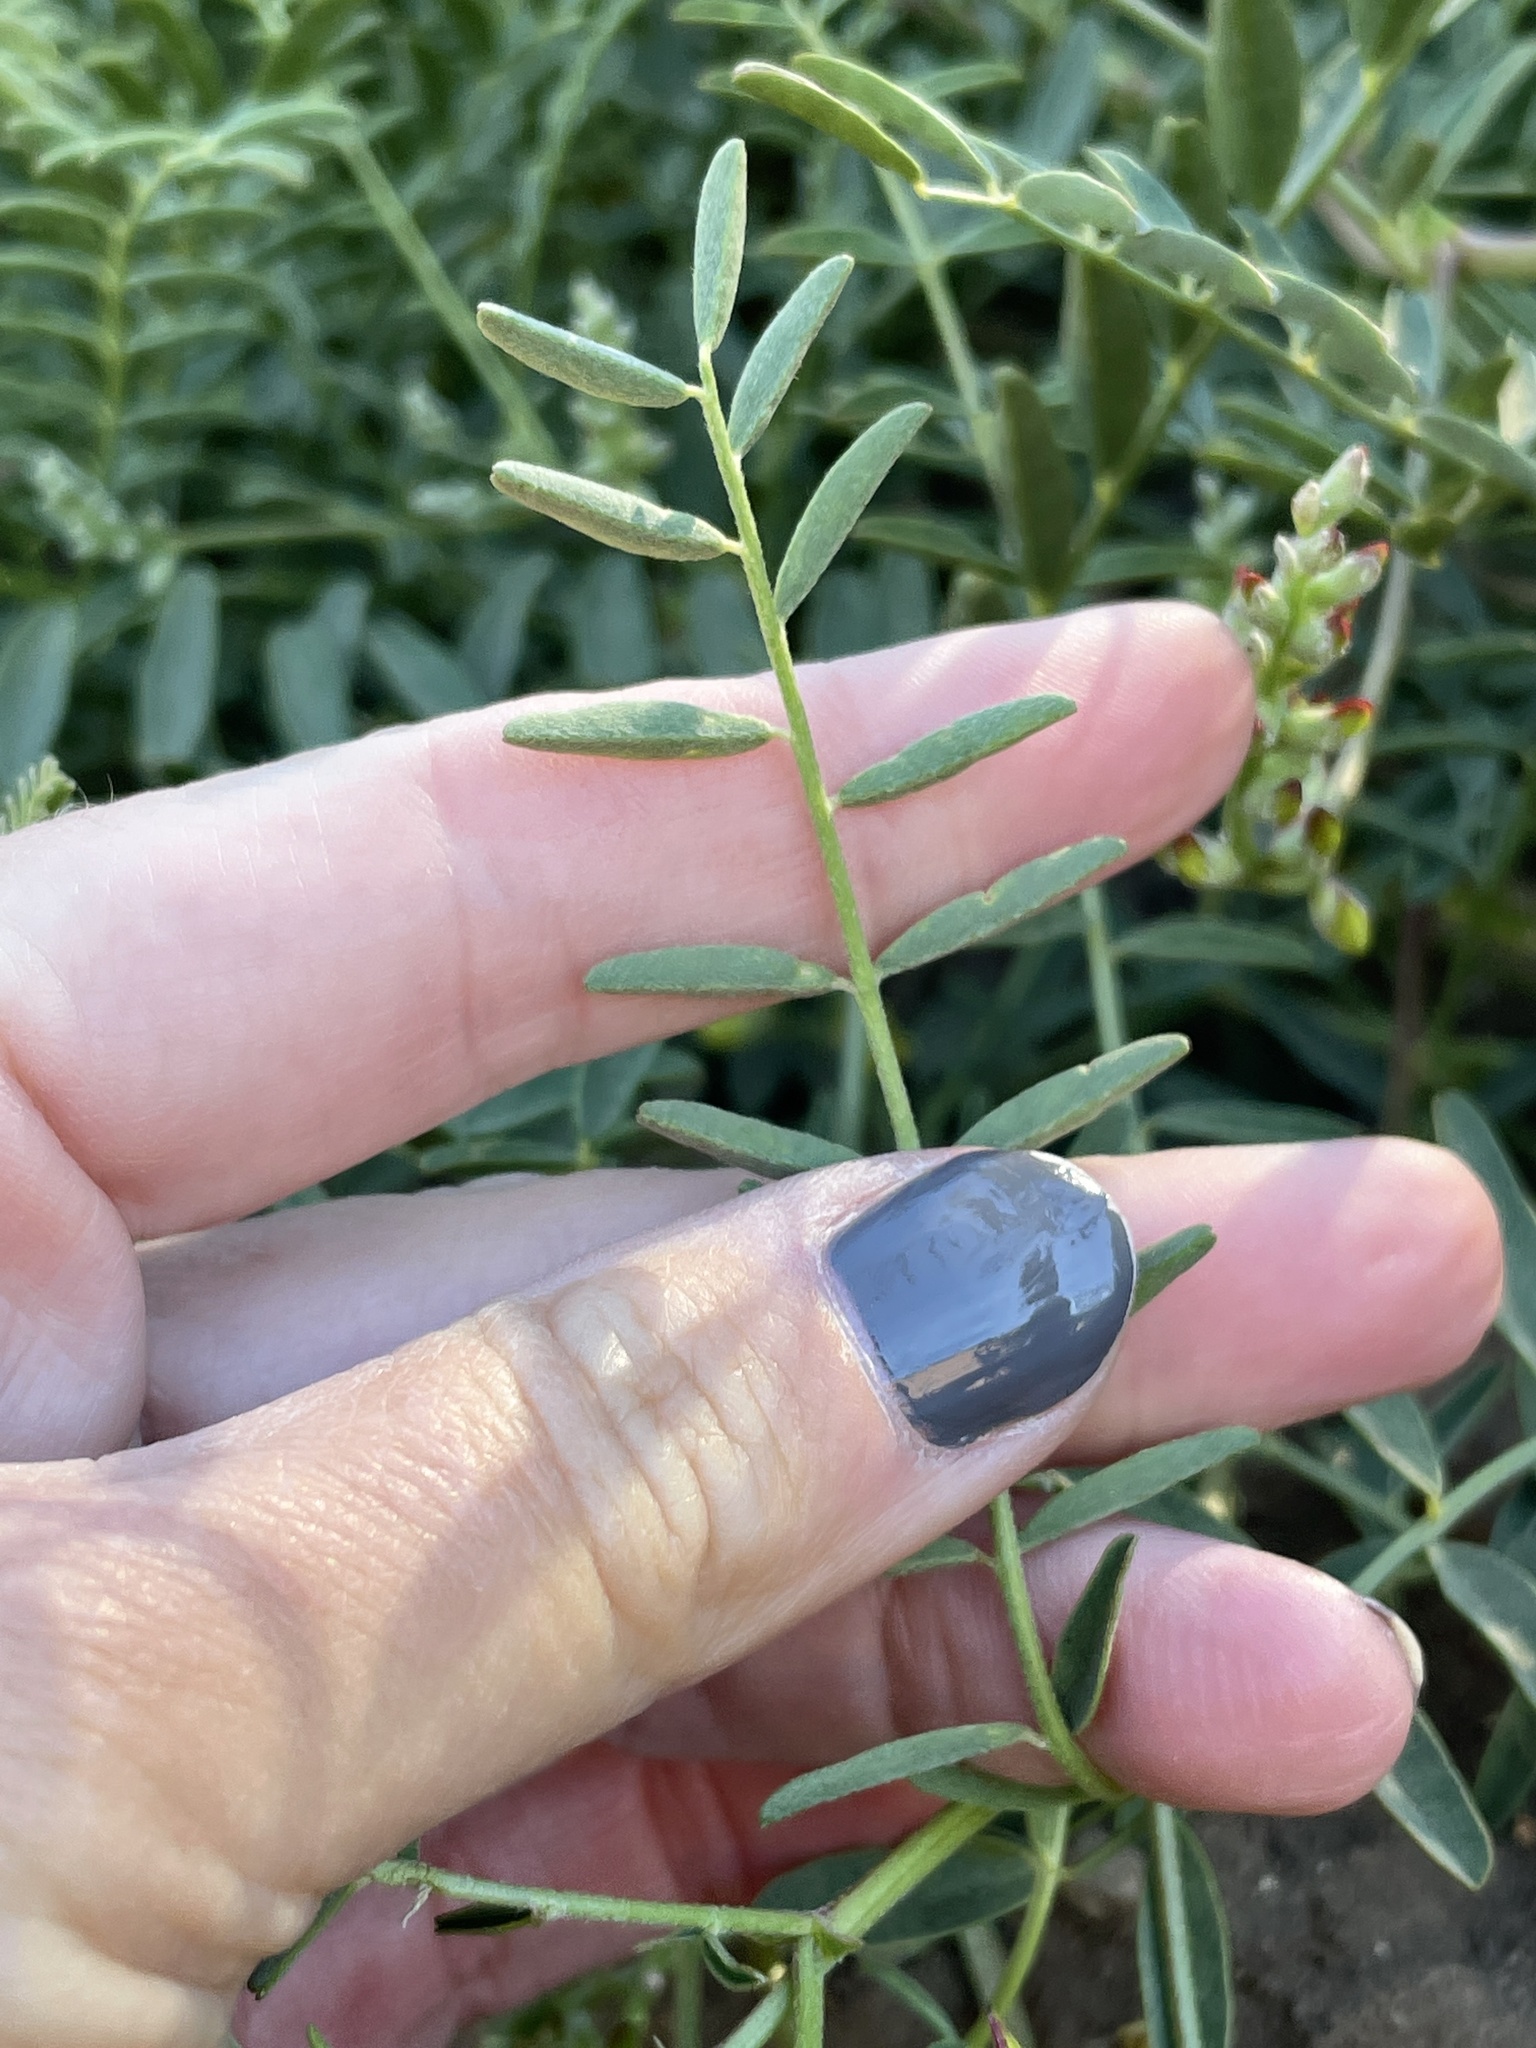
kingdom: Plantae
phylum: Tracheophyta
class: Magnoliopsida
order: Fabales
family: Fabaceae
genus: Astragalus
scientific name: Astragalus douglasii
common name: Jacumba milkvetch
